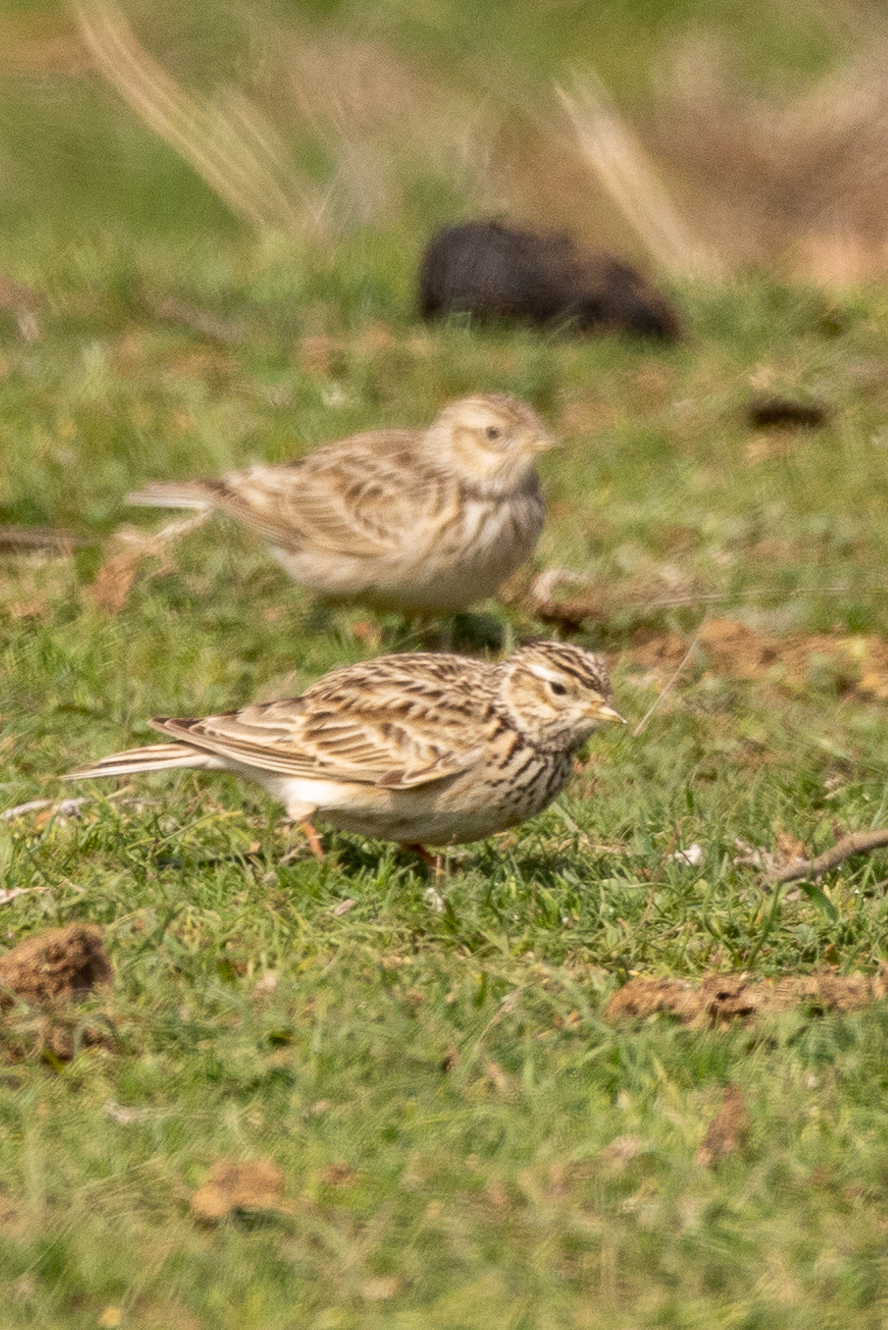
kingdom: Animalia
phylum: Chordata
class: Aves
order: Passeriformes
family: Alaudidae
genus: Alauda
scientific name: Alauda arvensis
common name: Eurasian skylark
